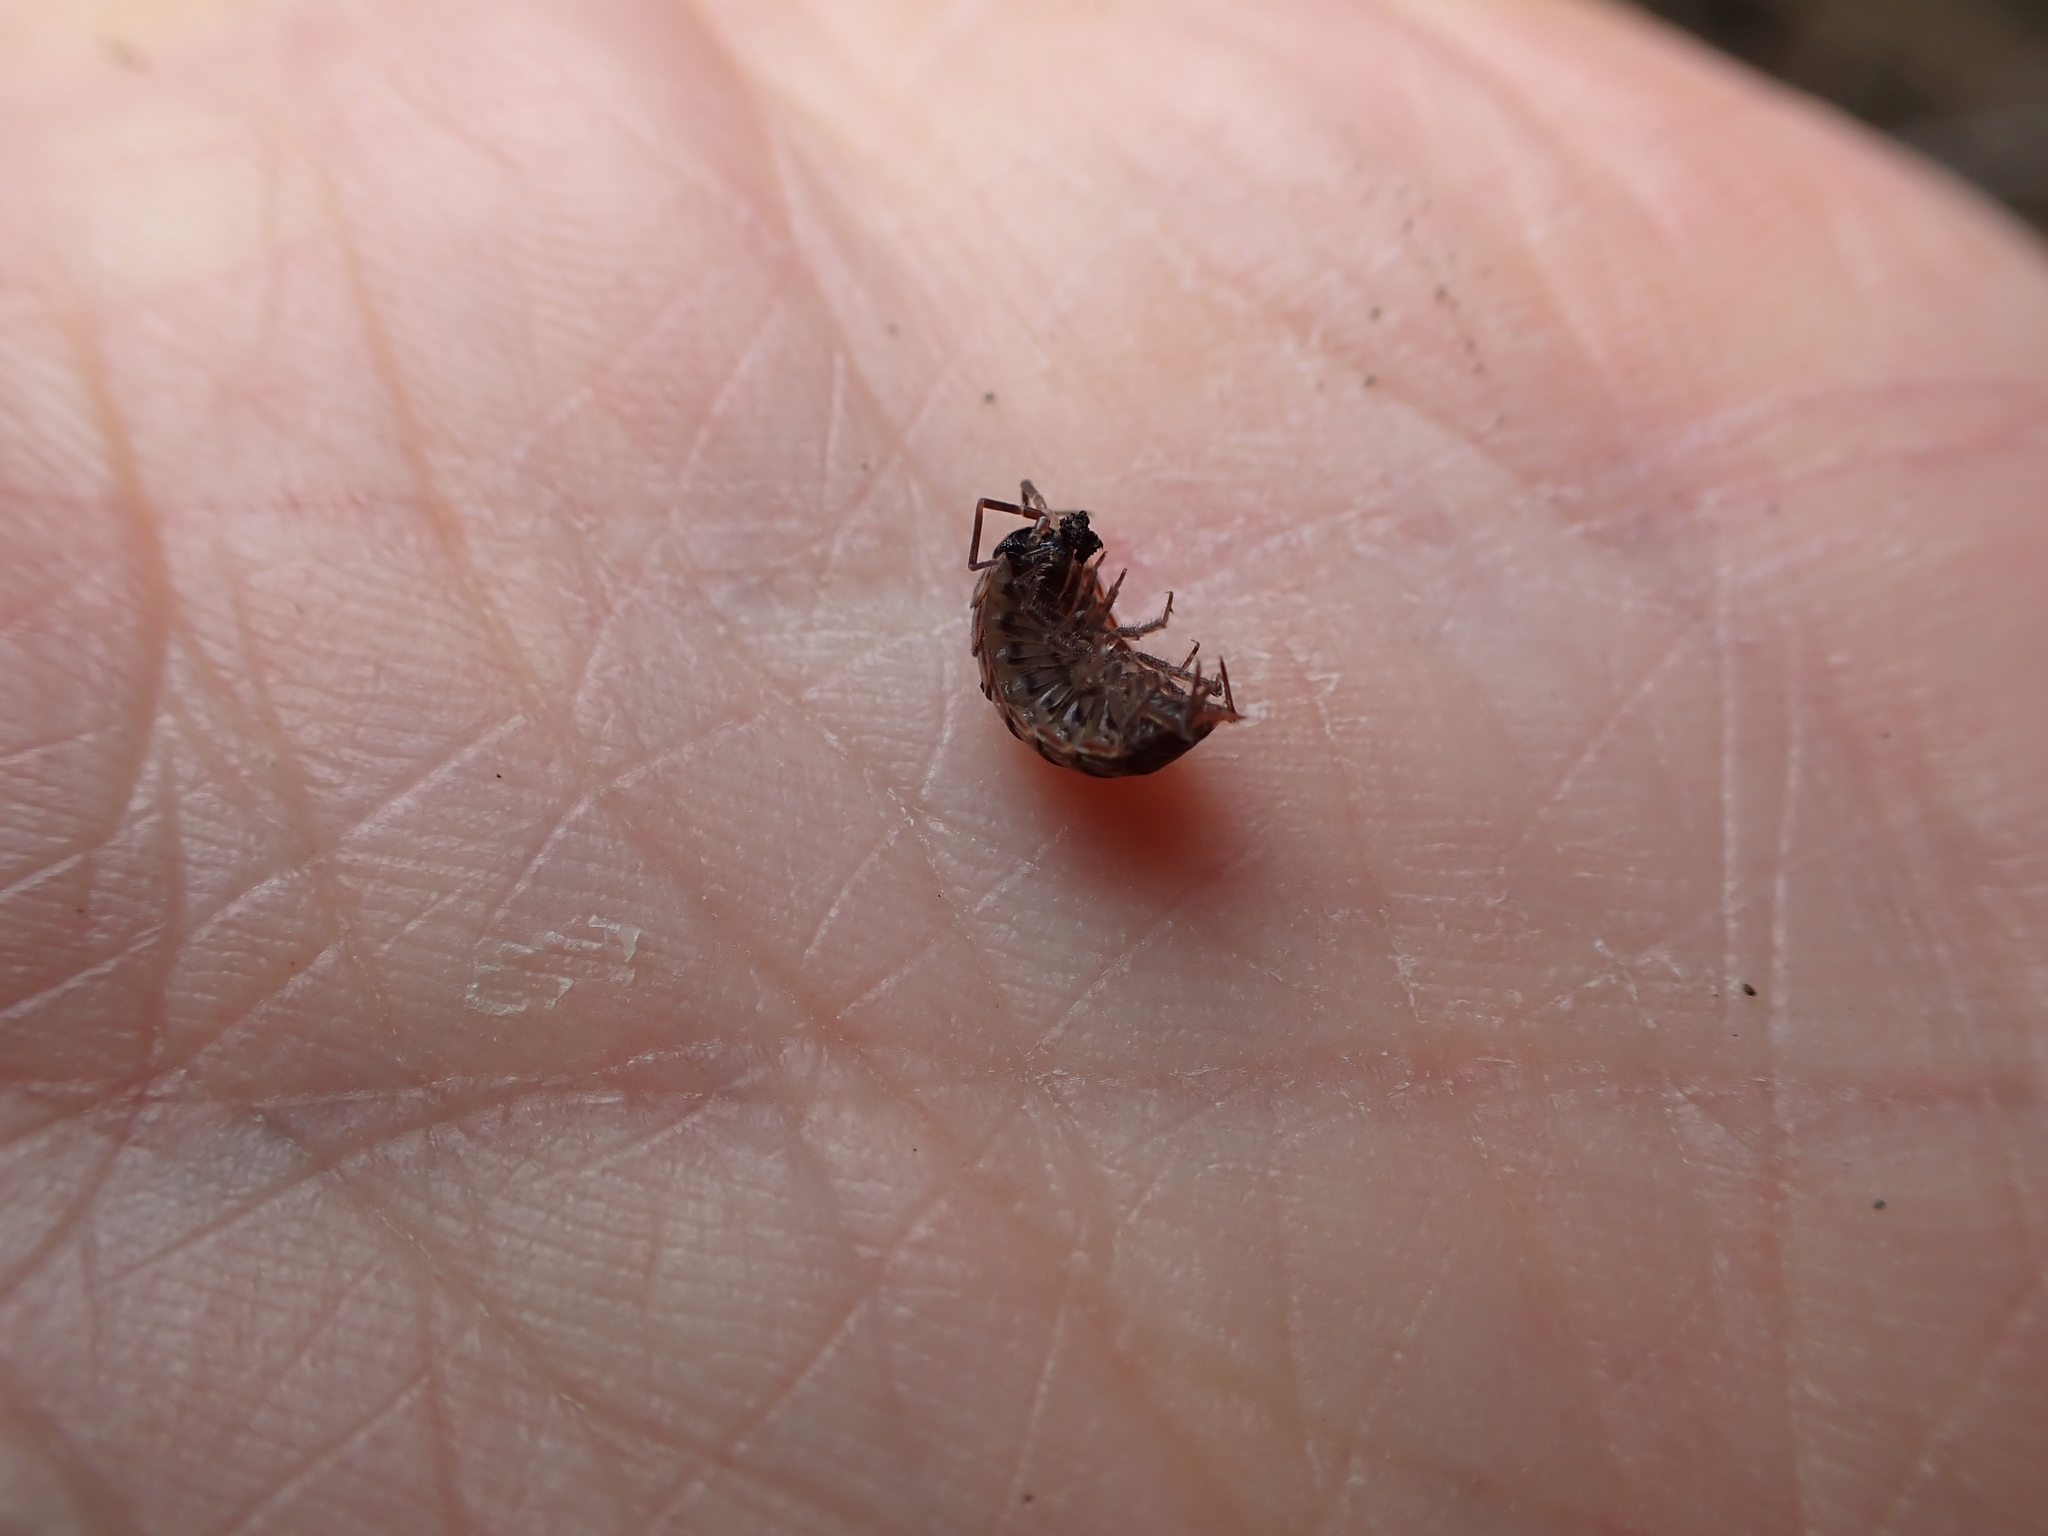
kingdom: Animalia
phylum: Arthropoda
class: Malacostraca
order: Isopoda
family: Philosciidae
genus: Philoscia
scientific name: Philoscia muscorum
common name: Common striped woodlouse
